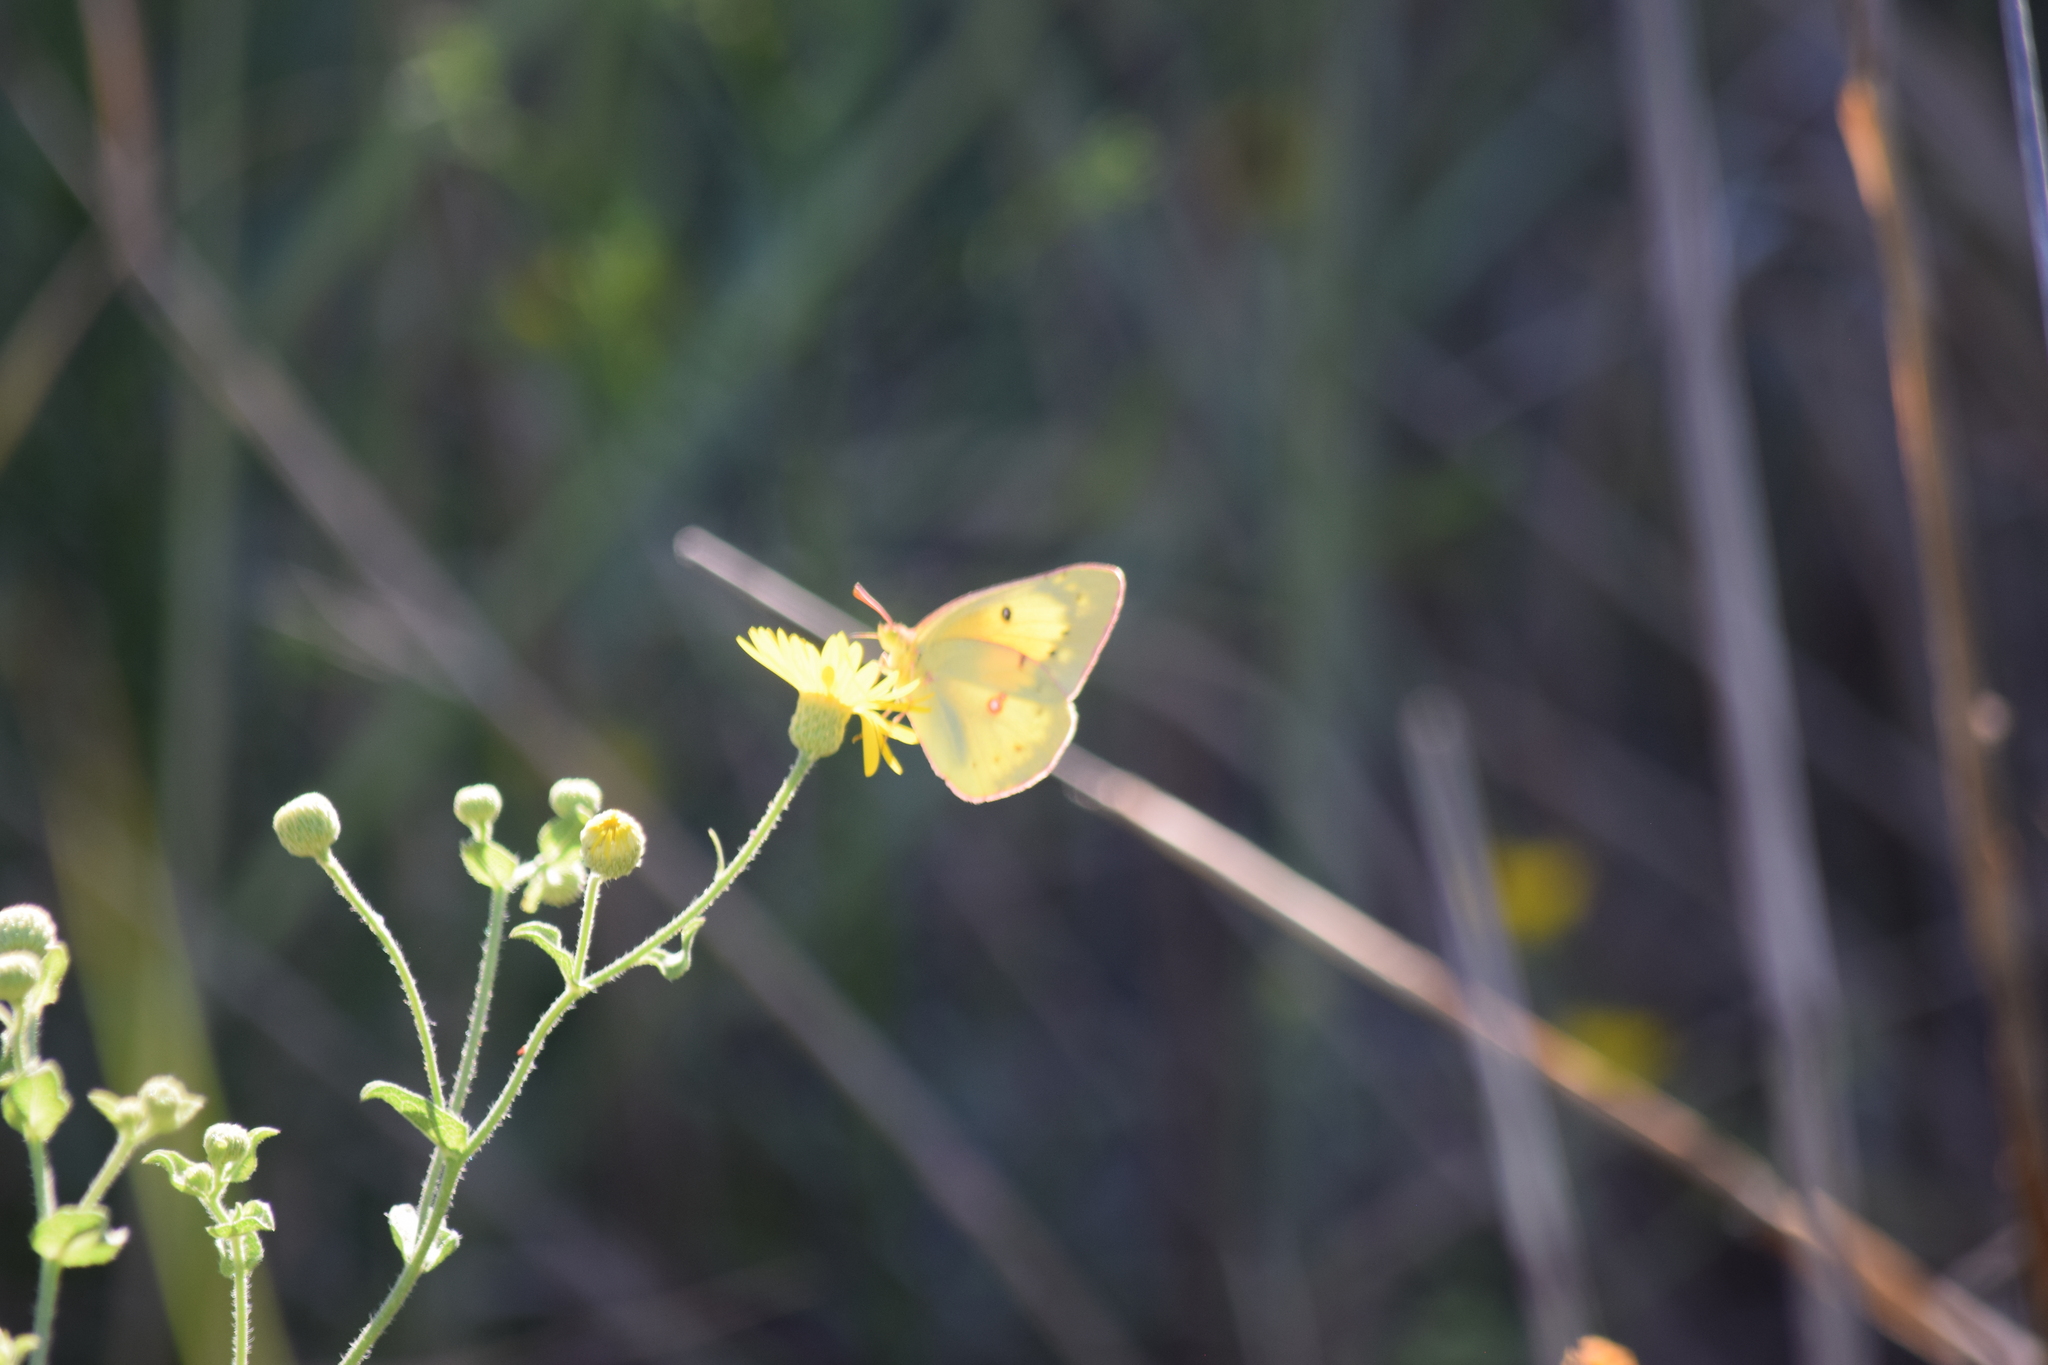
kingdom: Animalia
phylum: Arthropoda
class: Insecta
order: Lepidoptera
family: Pieridae
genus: Colias
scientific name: Colias eurytheme
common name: Alfalfa butterfly
